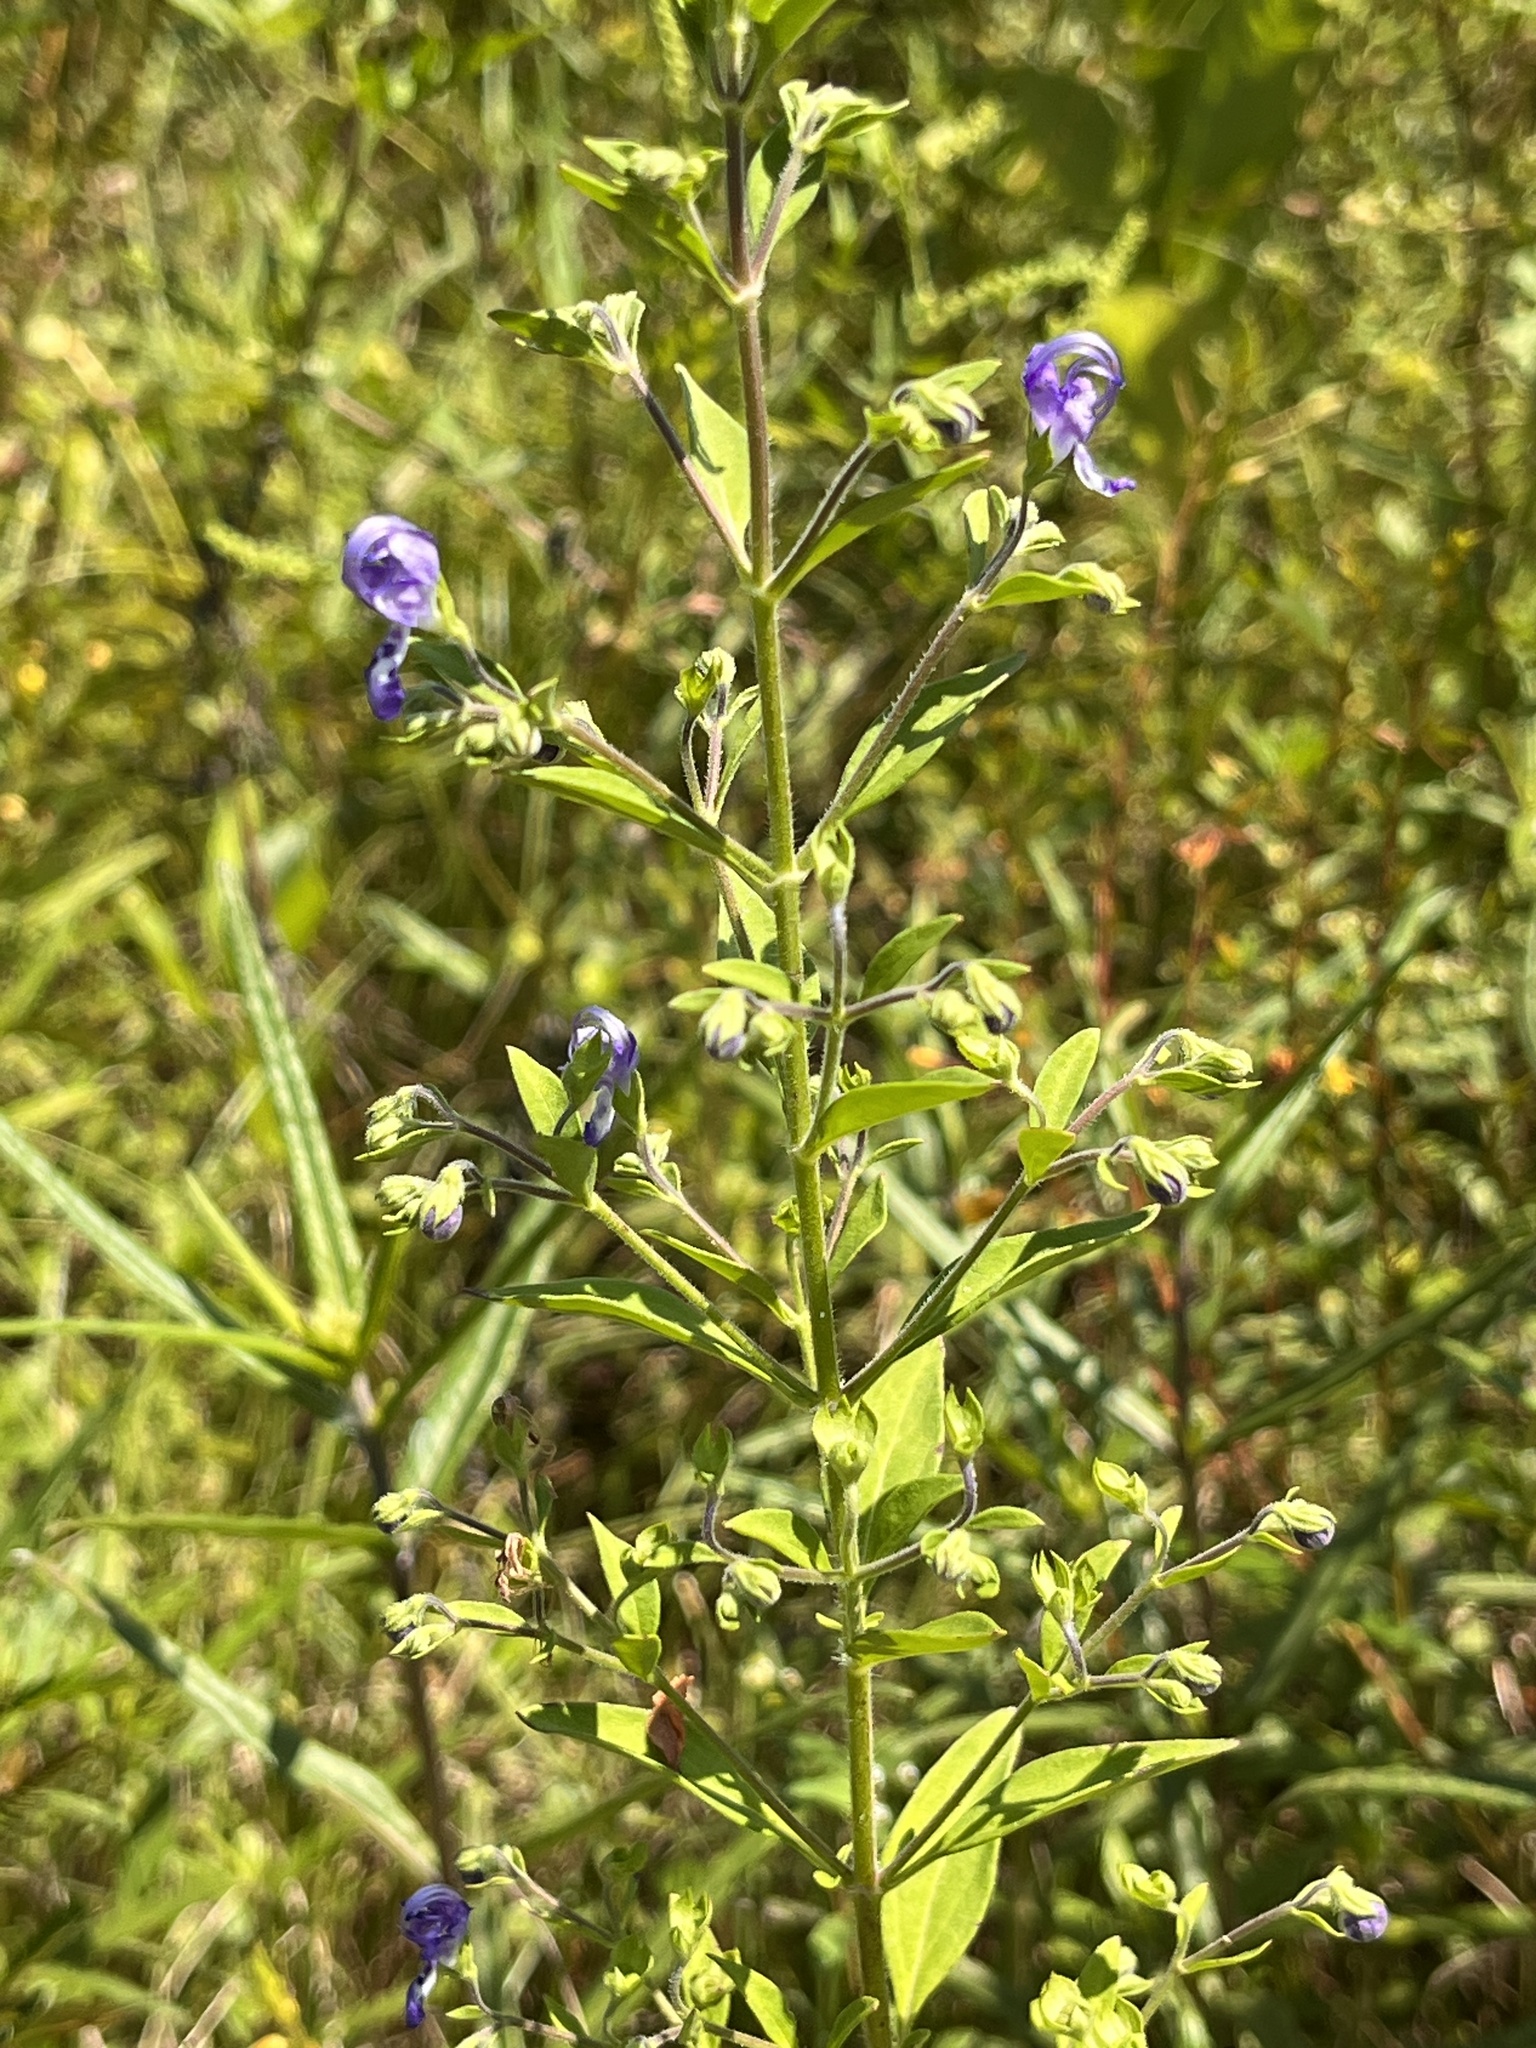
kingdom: Plantae
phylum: Tracheophyta
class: Magnoliopsida
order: Lamiales
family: Lamiaceae
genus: Trichostema
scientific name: Trichostema dichotomum
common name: Bastard pennyroyal
